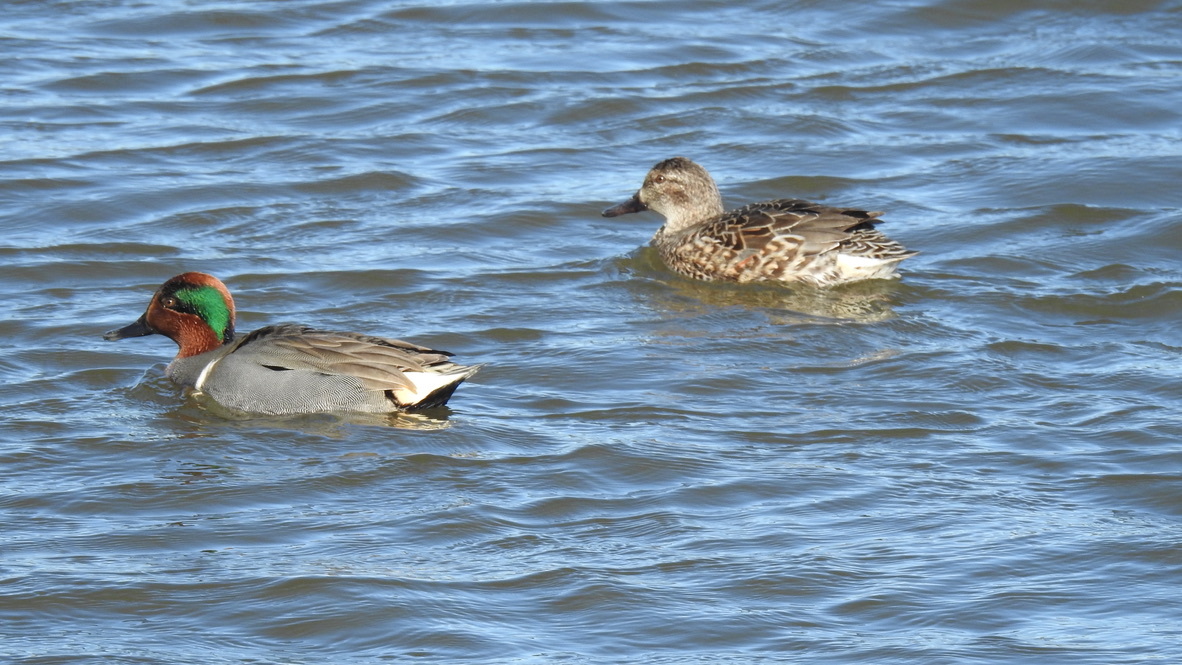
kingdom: Animalia
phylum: Chordata
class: Aves
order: Anseriformes
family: Anatidae
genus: Anas
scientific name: Anas crecca
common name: Eurasian teal
